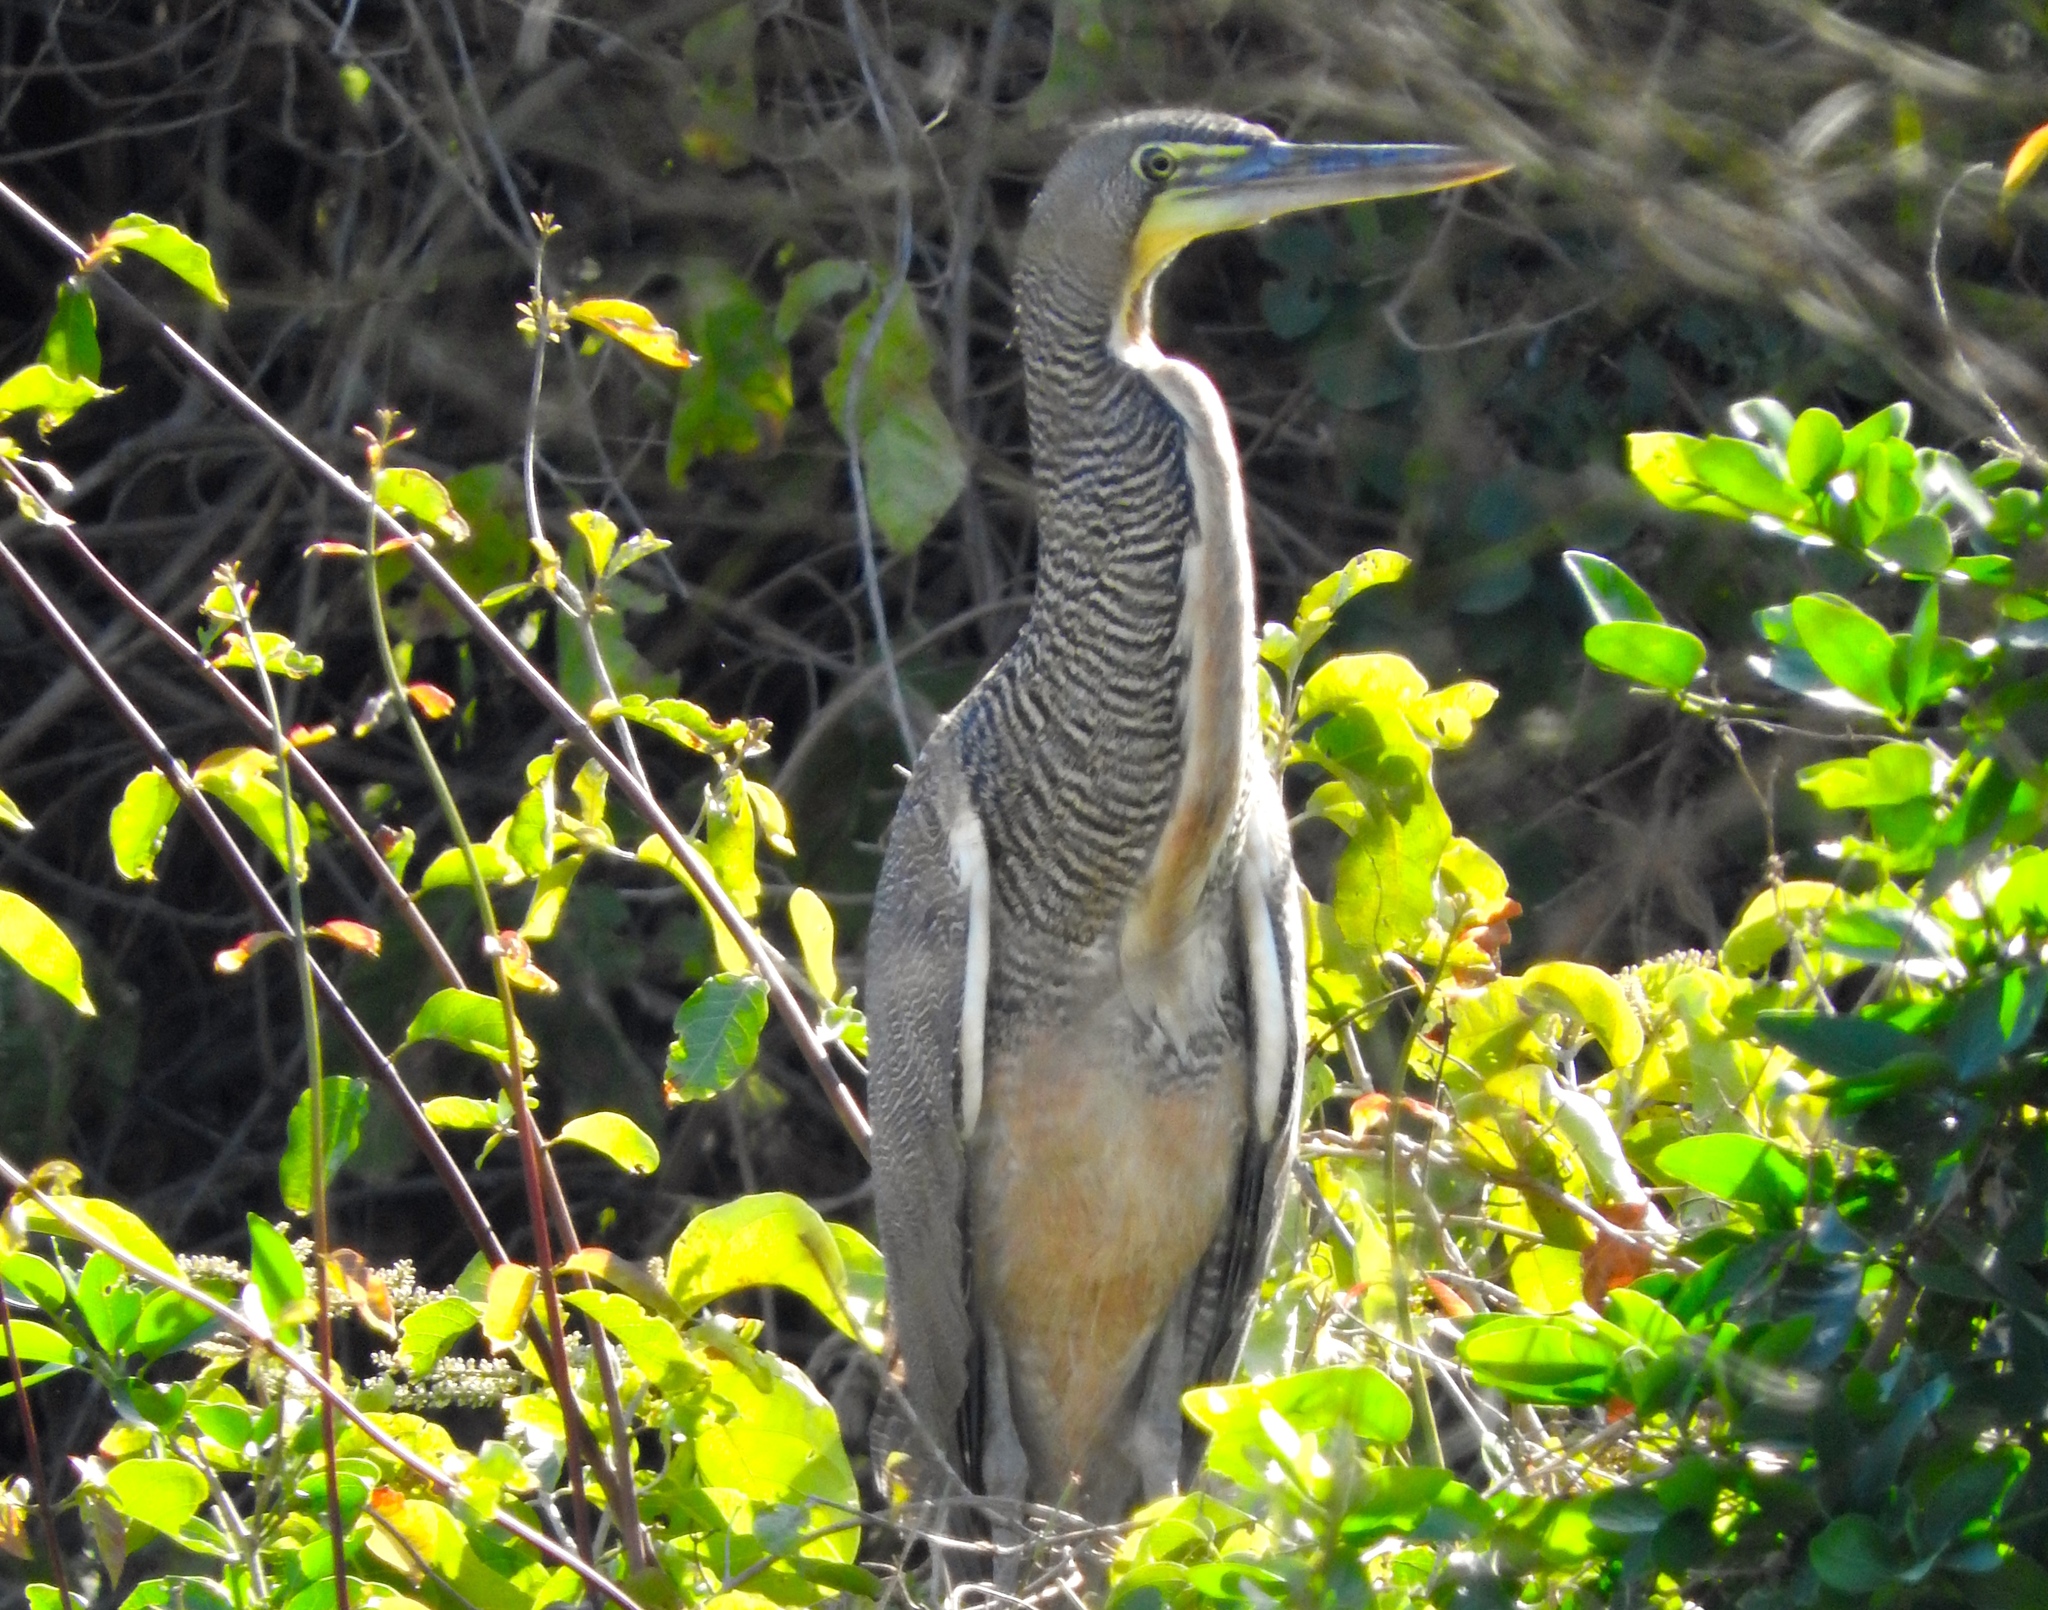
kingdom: Animalia
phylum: Chordata
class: Aves
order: Pelecaniformes
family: Ardeidae
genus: Tigrisoma
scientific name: Tigrisoma mexicanum
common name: Bare-throated tiger-heron
